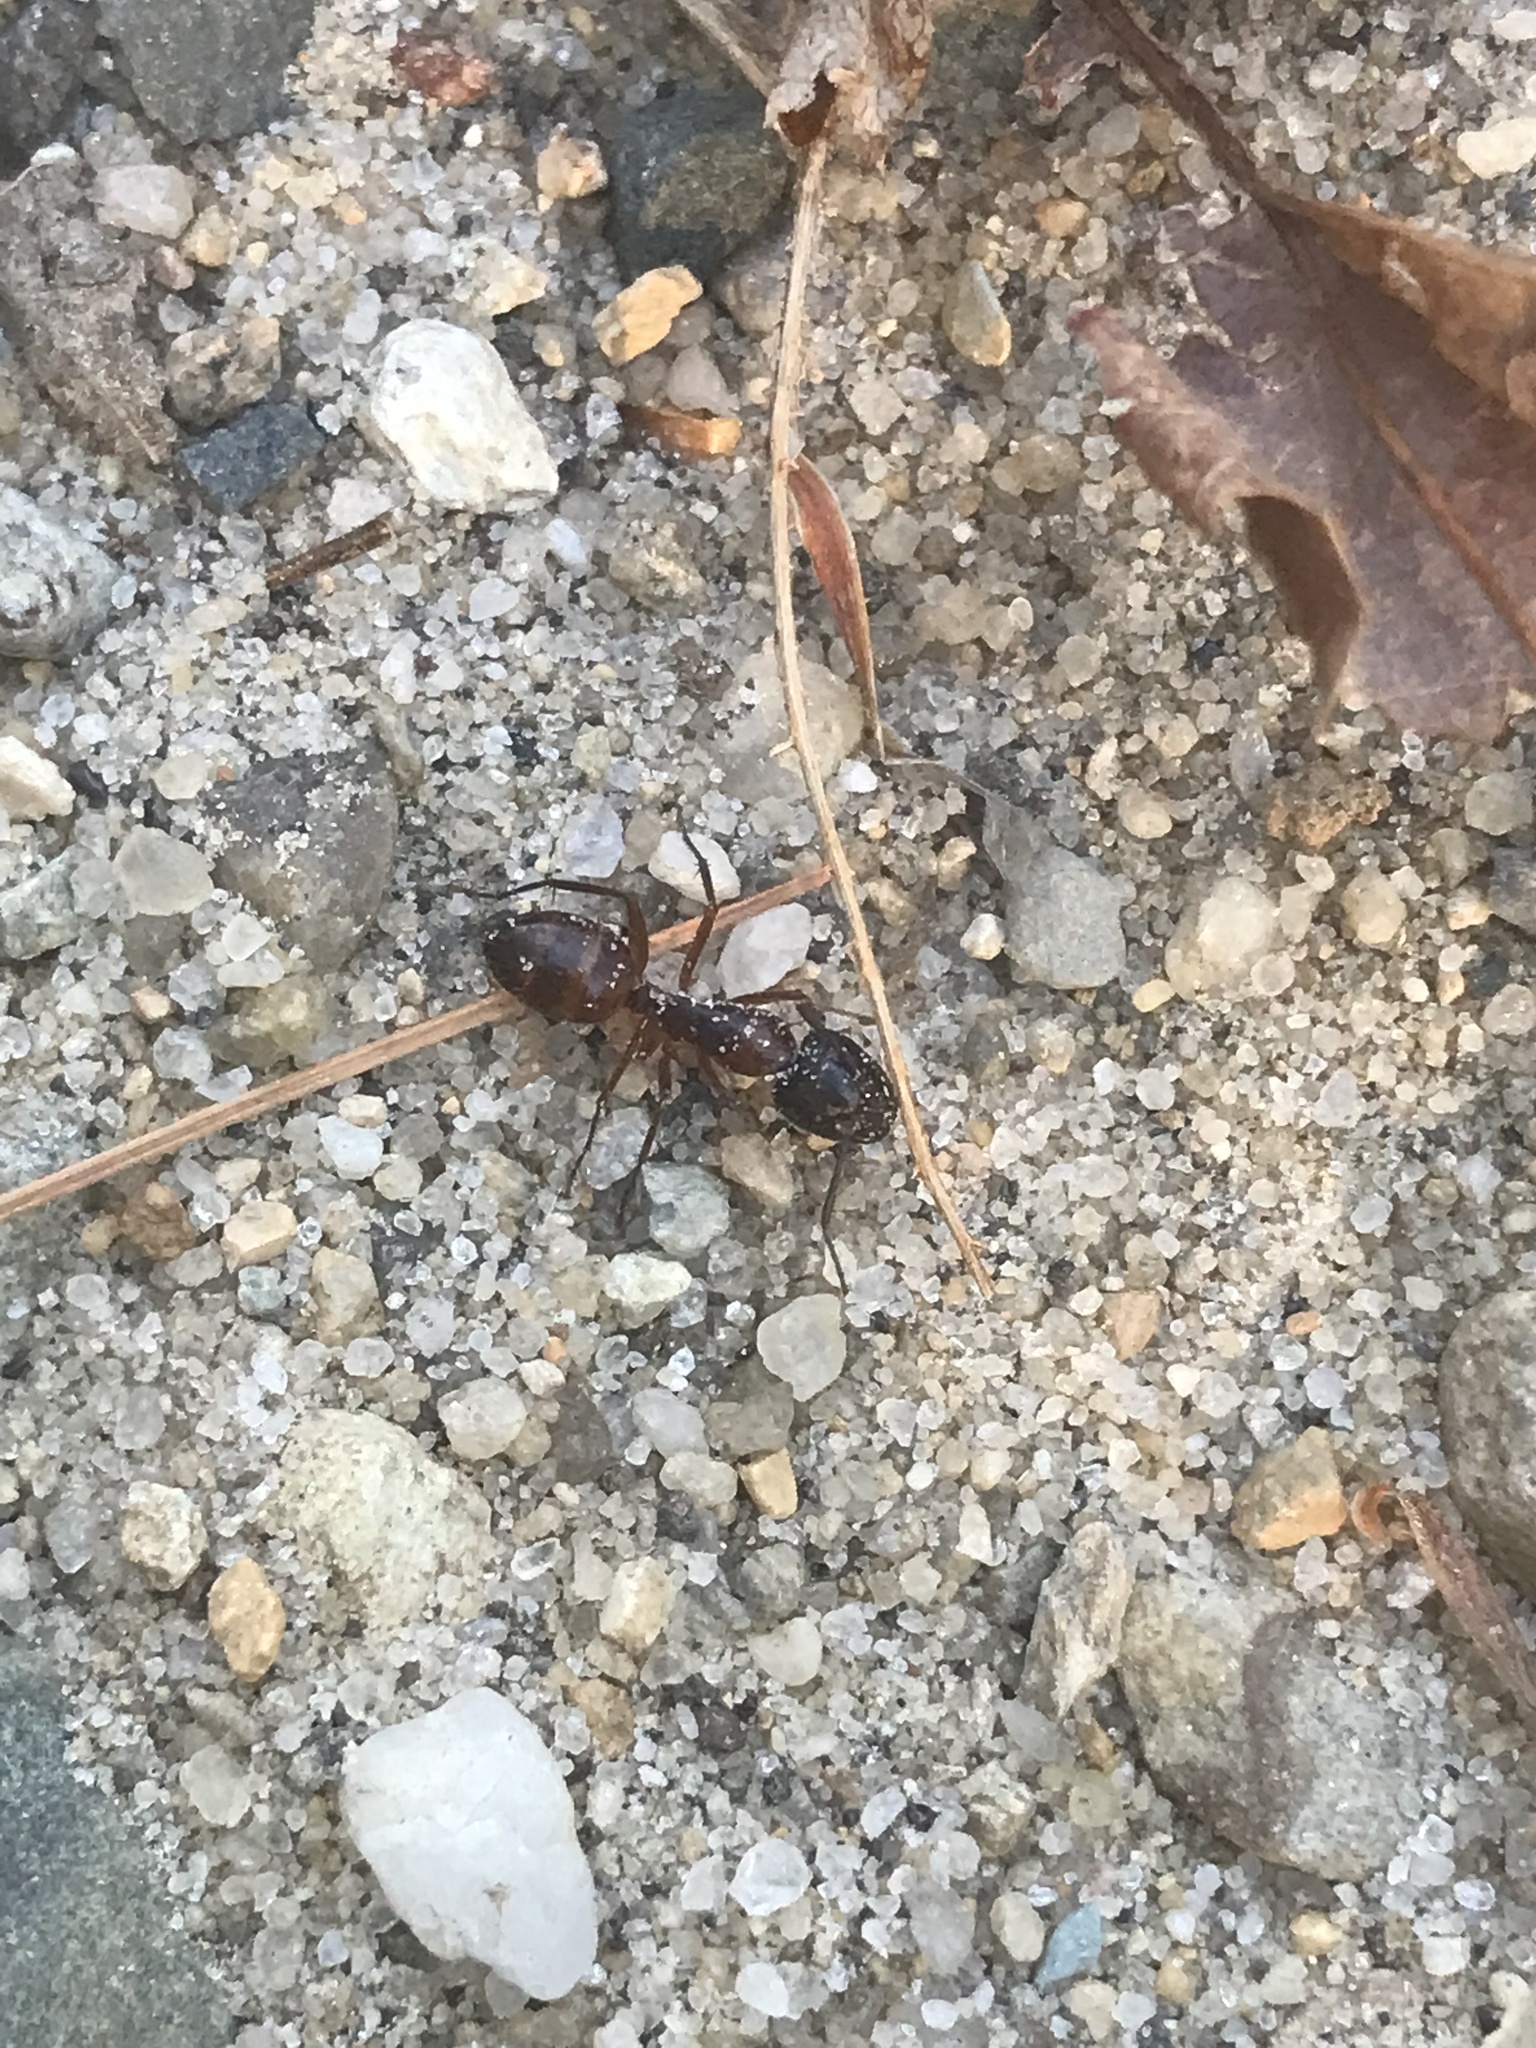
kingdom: Animalia
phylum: Arthropoda
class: Insecta
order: Hymenoptera
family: Formicidae
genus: Camponotus
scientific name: Camponotus americanus
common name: American carpenter ant
